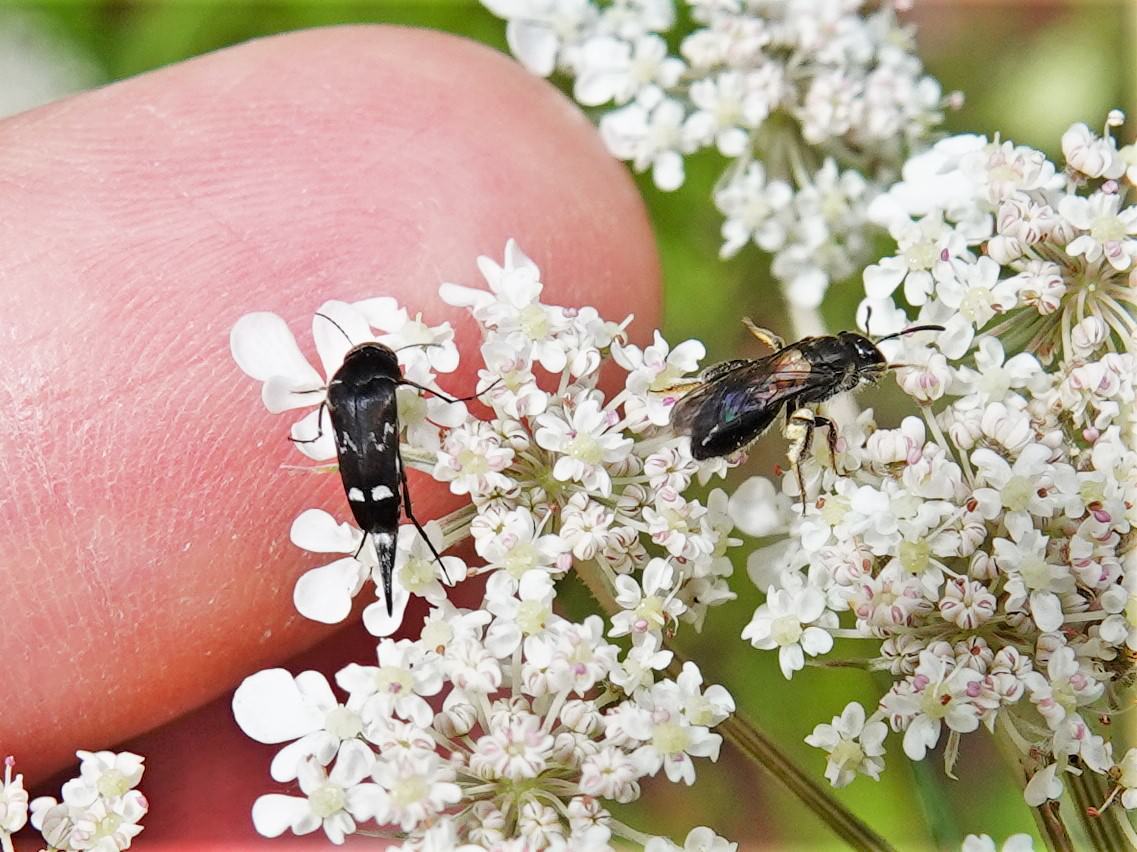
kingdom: Animalia
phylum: Arthropoda
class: Insecta
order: Coleoptera
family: Mordellidae
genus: Mordella
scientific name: Mordella
